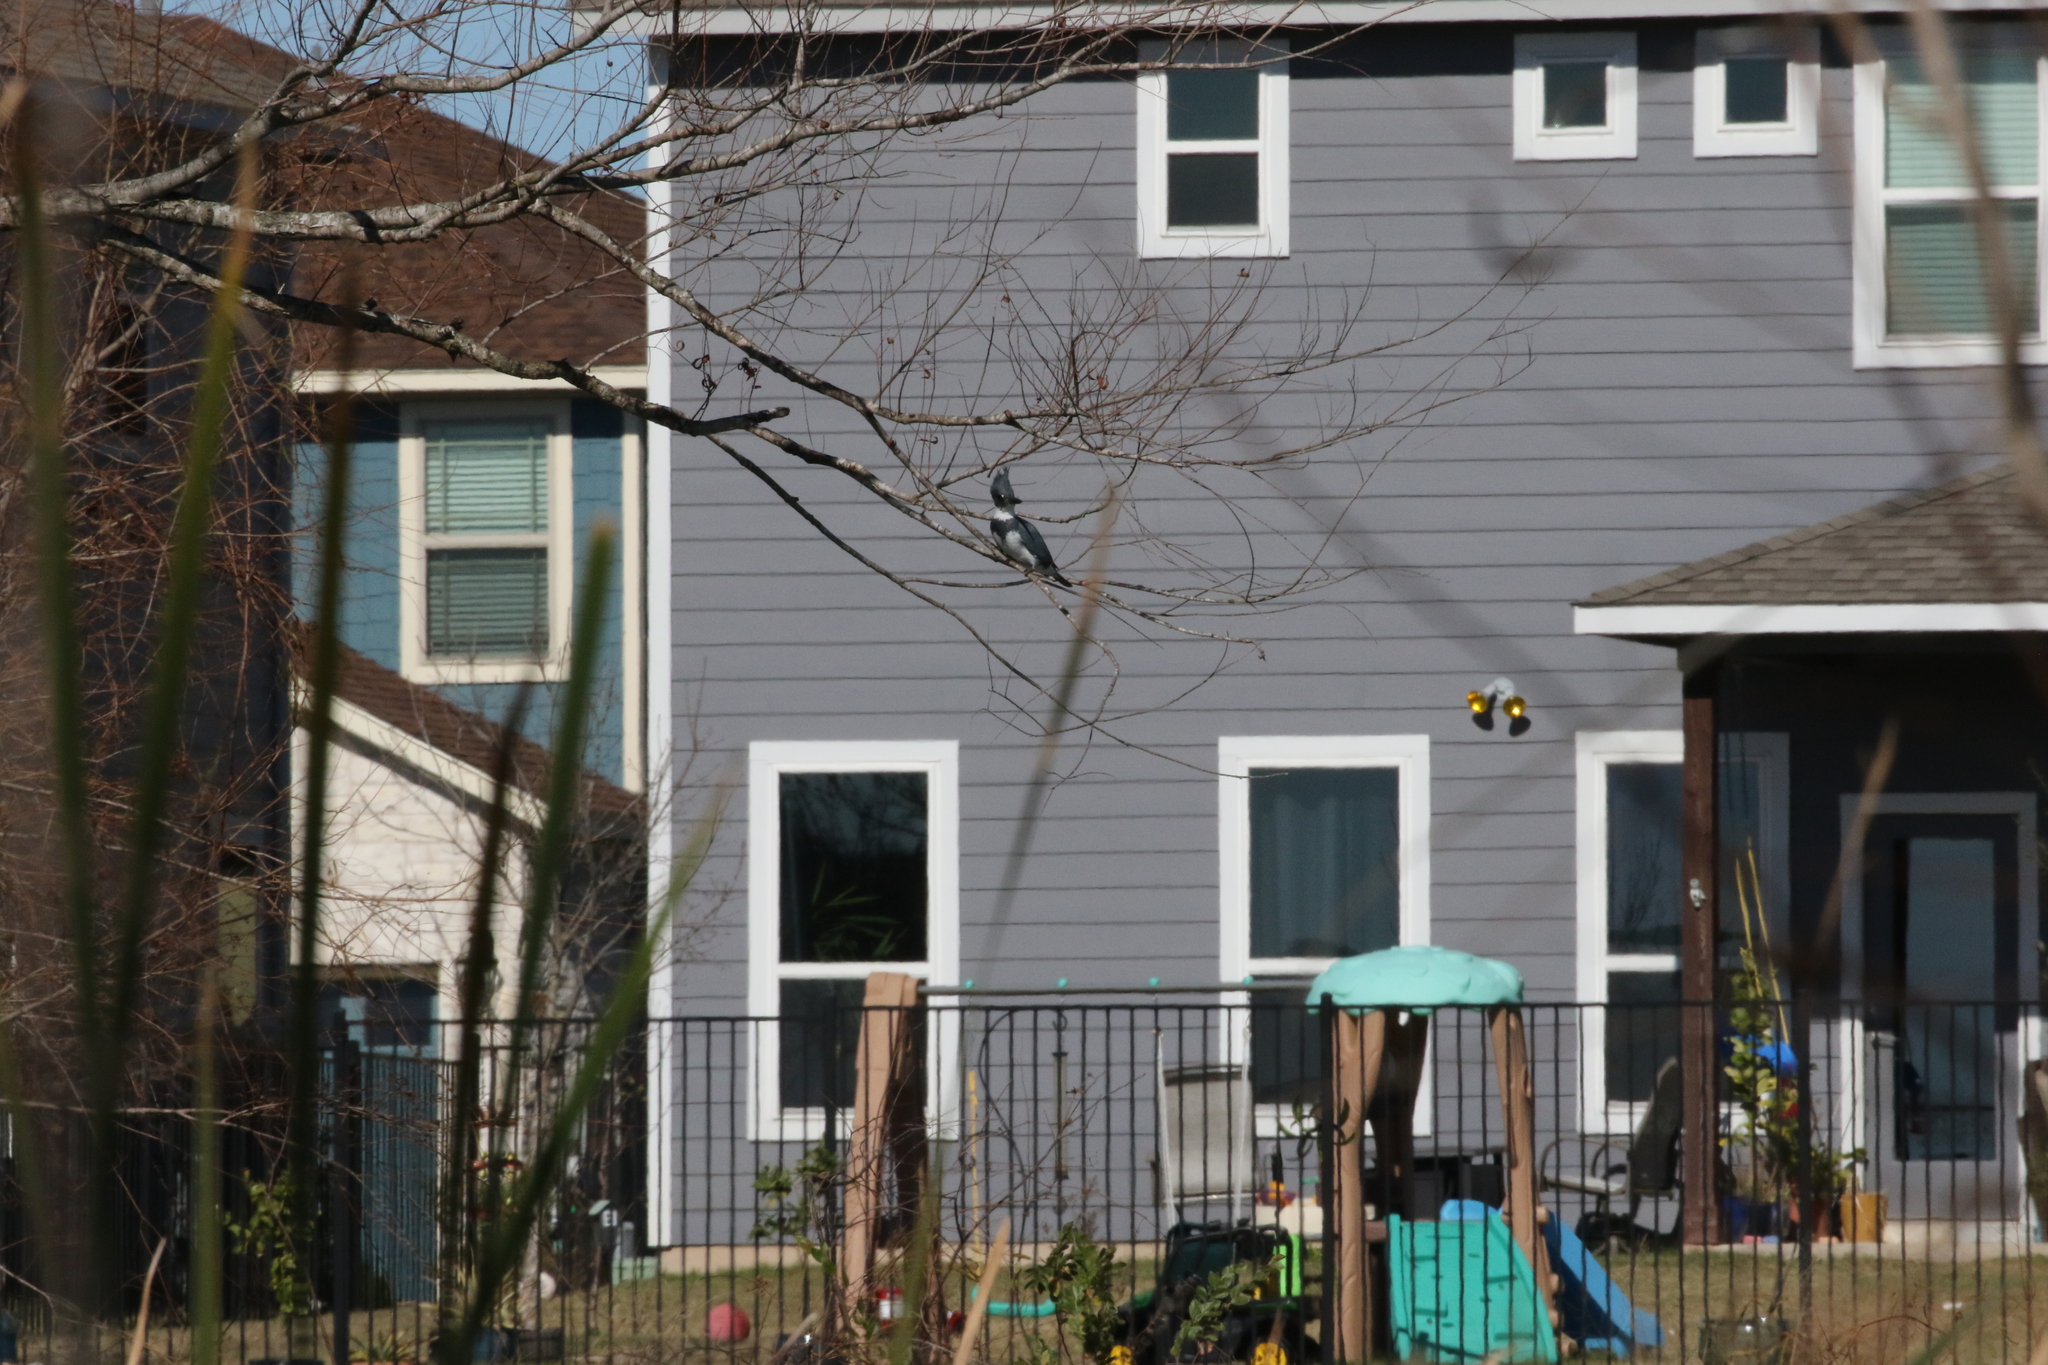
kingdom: Animalia
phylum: Chordata
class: Aves
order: Coraciiformes
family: Alcedinidae
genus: Megaceryle
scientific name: Megaceryle alcyon
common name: Belted kingfisher
